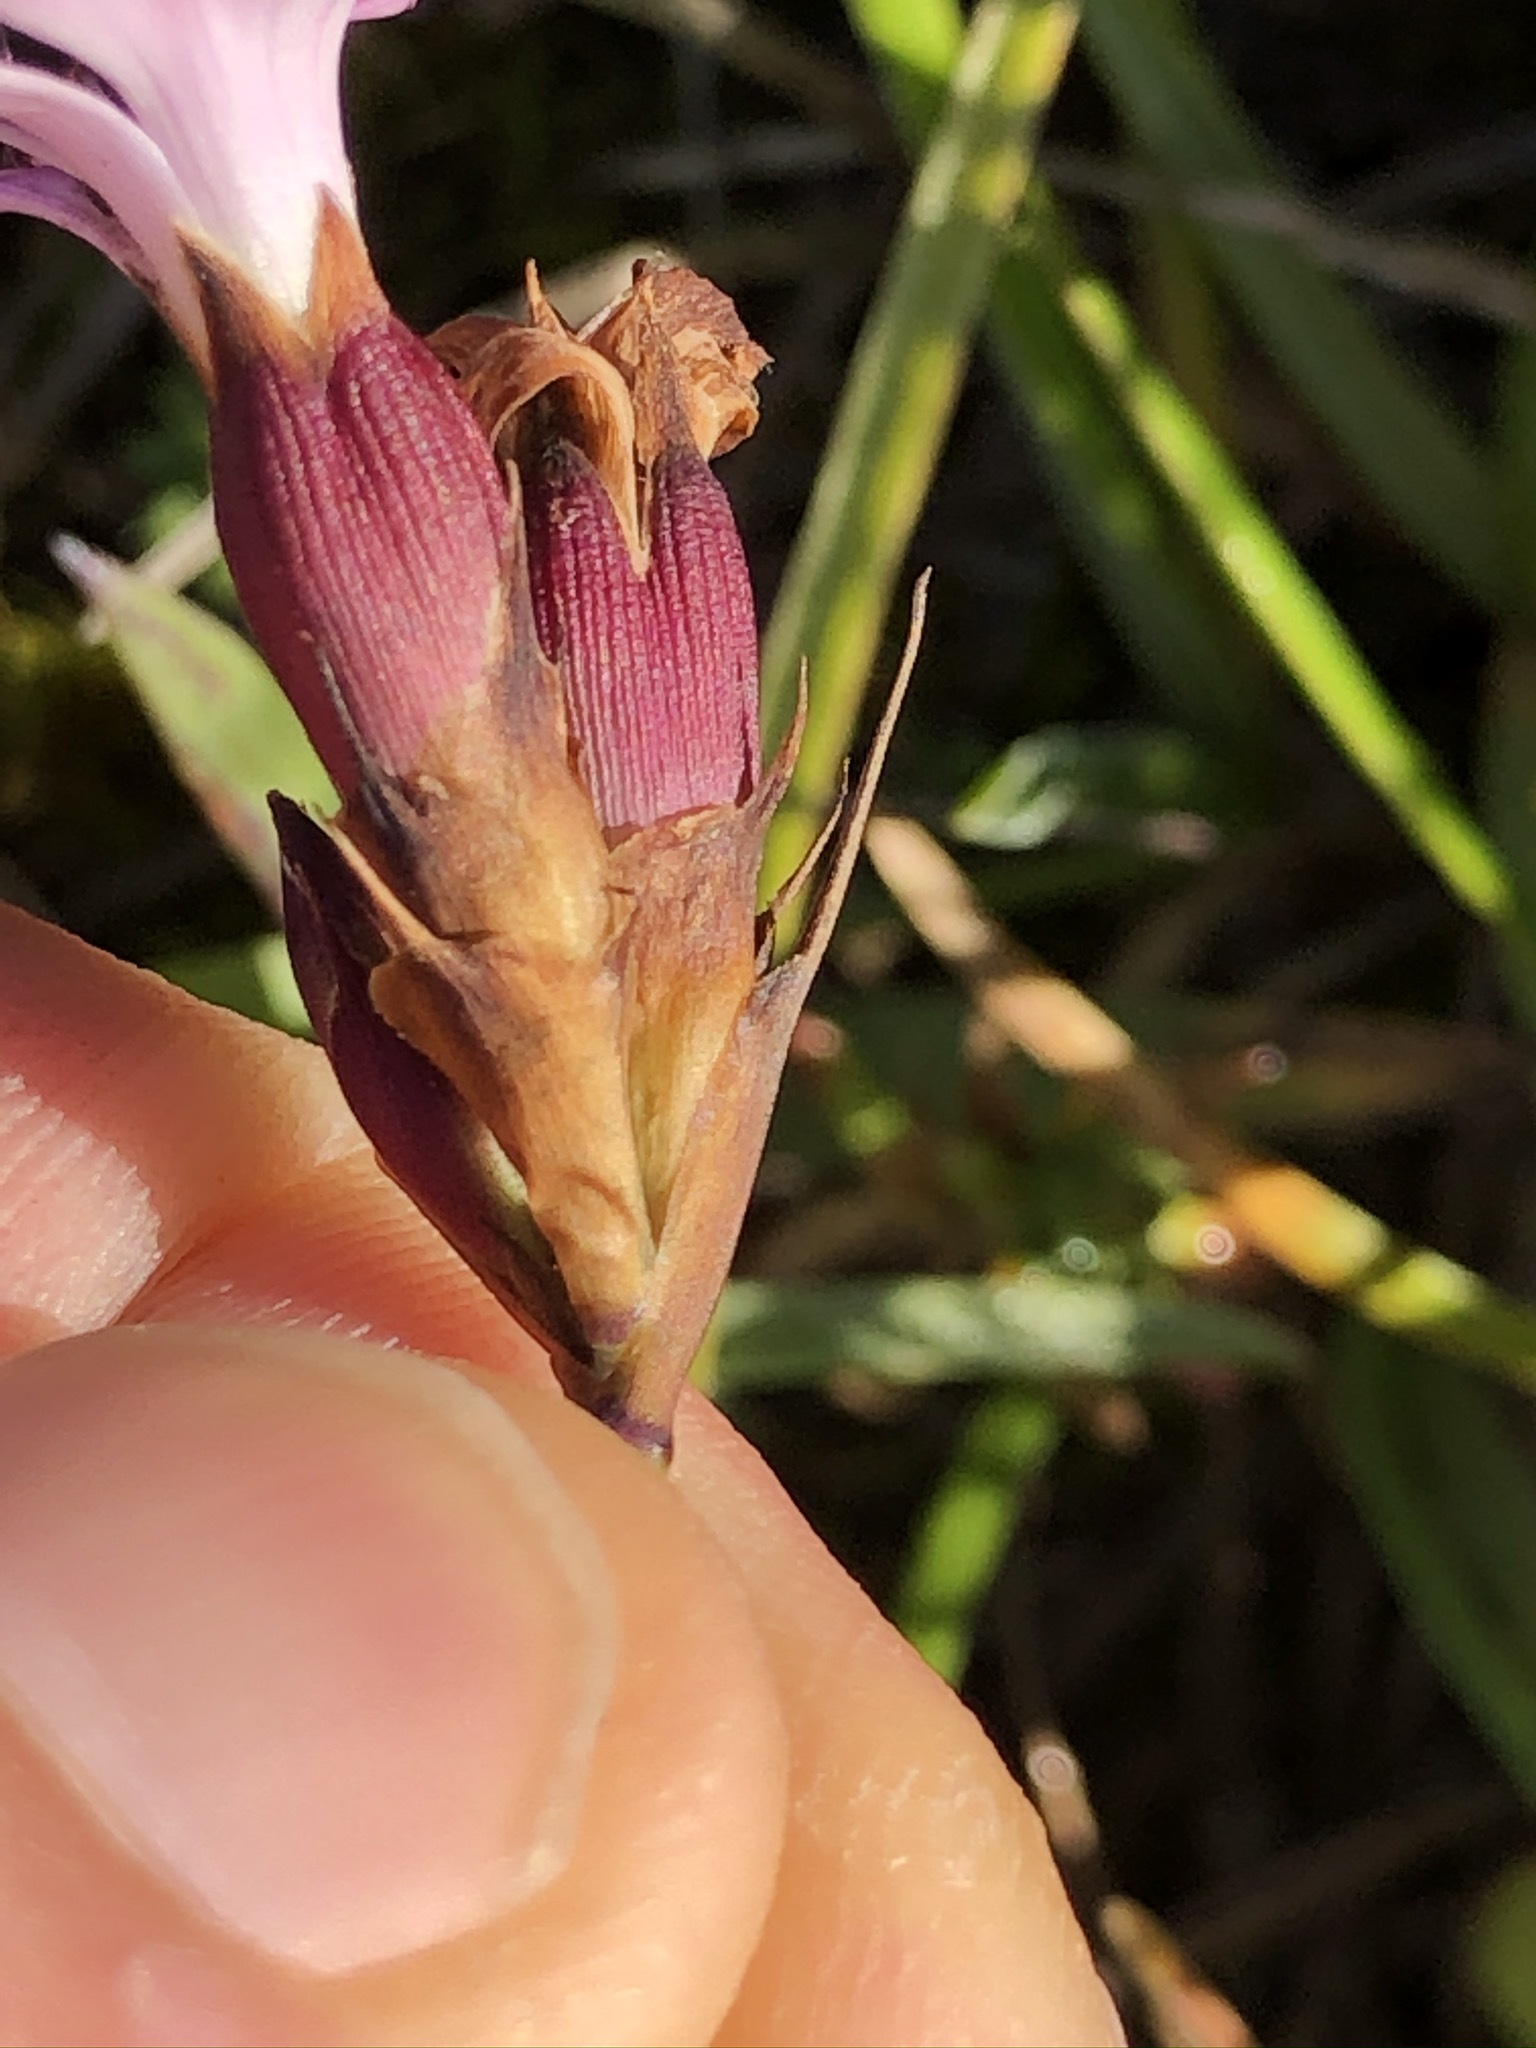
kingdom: Plantae
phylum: Tracheophyta
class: Magnoliopsida
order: Caryophyllales
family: Caryophyllaceae
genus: Dianthus
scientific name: Dianthus carthusianorum
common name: Carthusian pink
